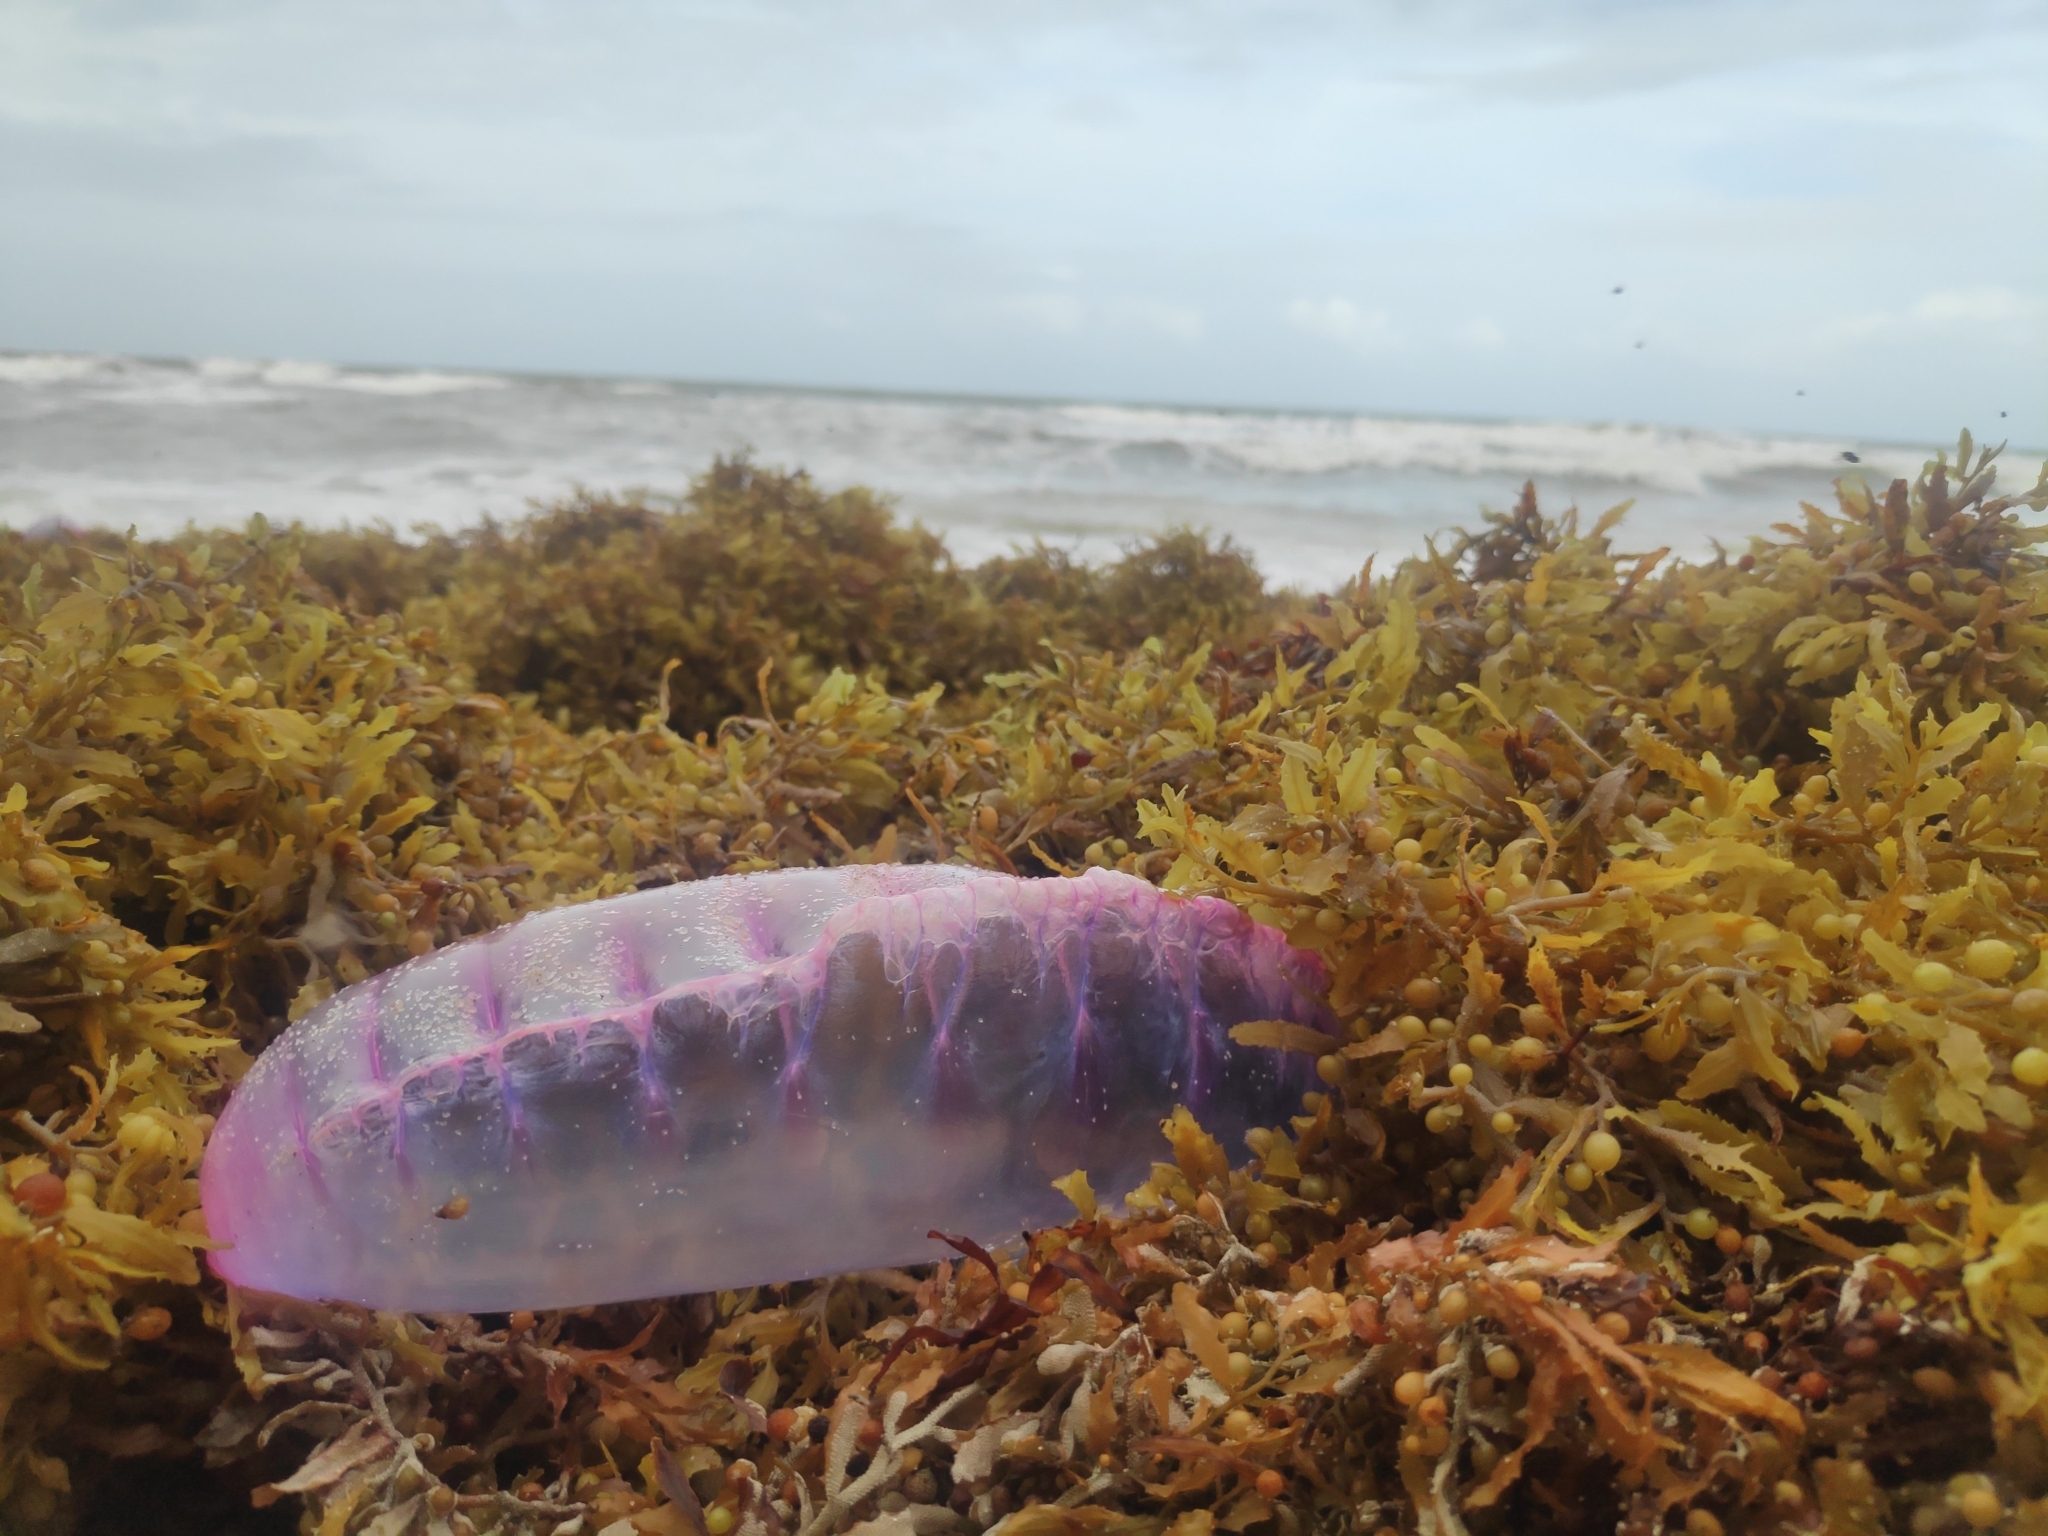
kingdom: Animalia
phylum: Cnidaria
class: Hydrozoa
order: Siphonophorae
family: Physaliidae
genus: Physalia
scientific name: Physalia physalis
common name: Portuguese man-of-war
